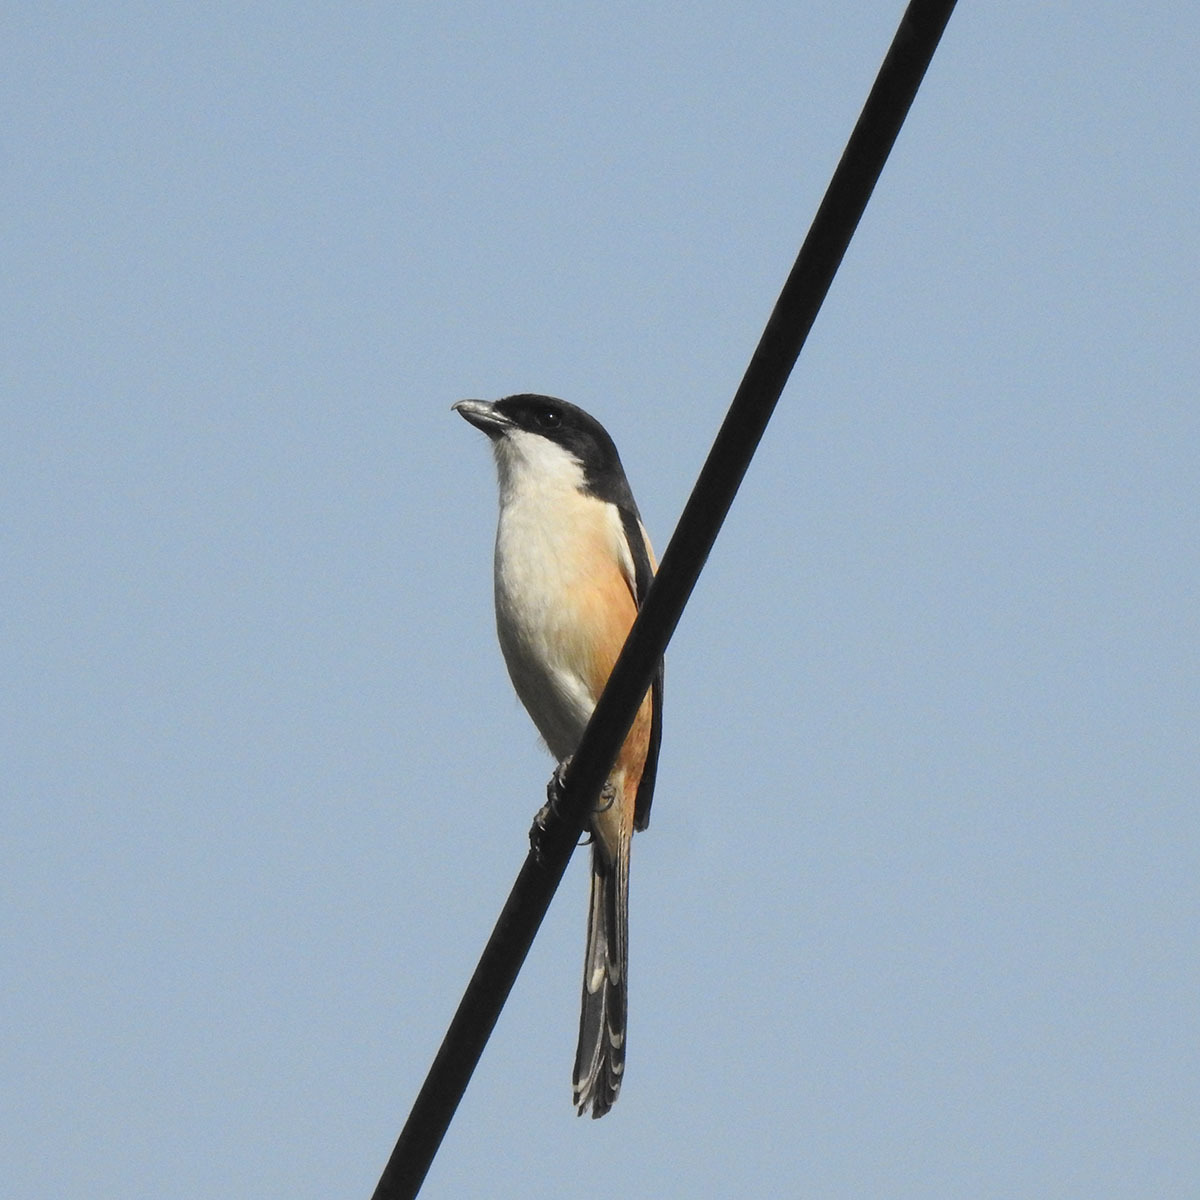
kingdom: Animalia
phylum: Chordata
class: Aves
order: Passeriformes
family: Laniidae
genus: Lanius
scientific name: Lanius schach
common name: Long-tailed shrike
